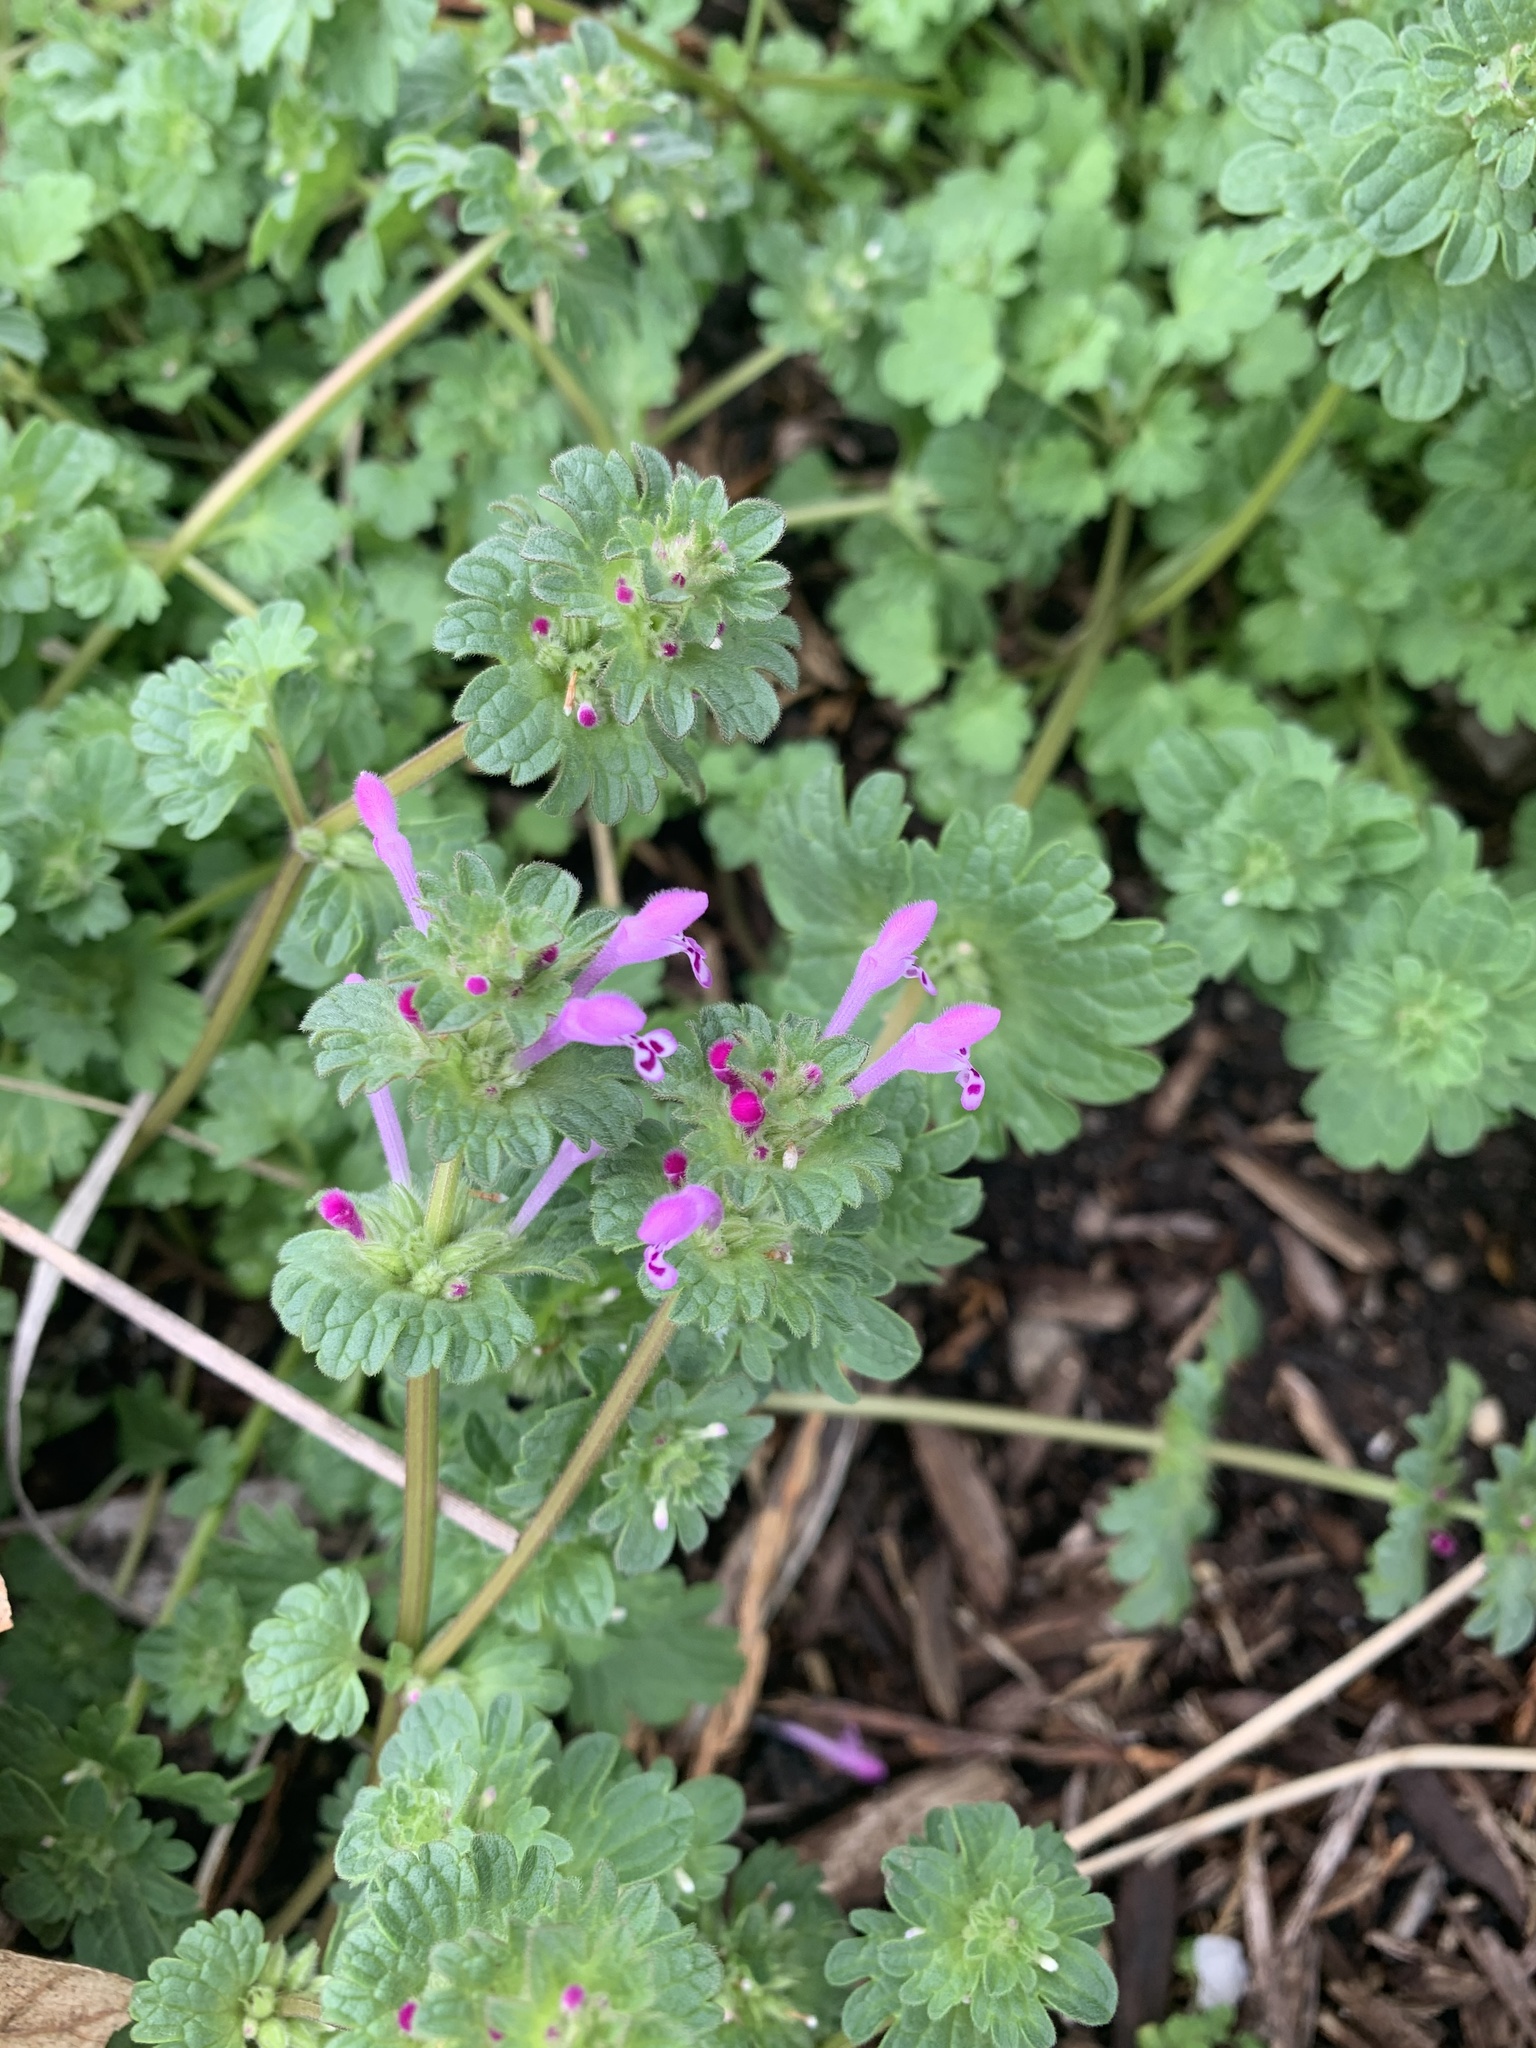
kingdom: Plantae
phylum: Tracheophyta
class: Magnoliopsida
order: Lamiales
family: Lamiaceae
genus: Lamium
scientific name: Lamium amplexicaule
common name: Henbit dead-nettle
